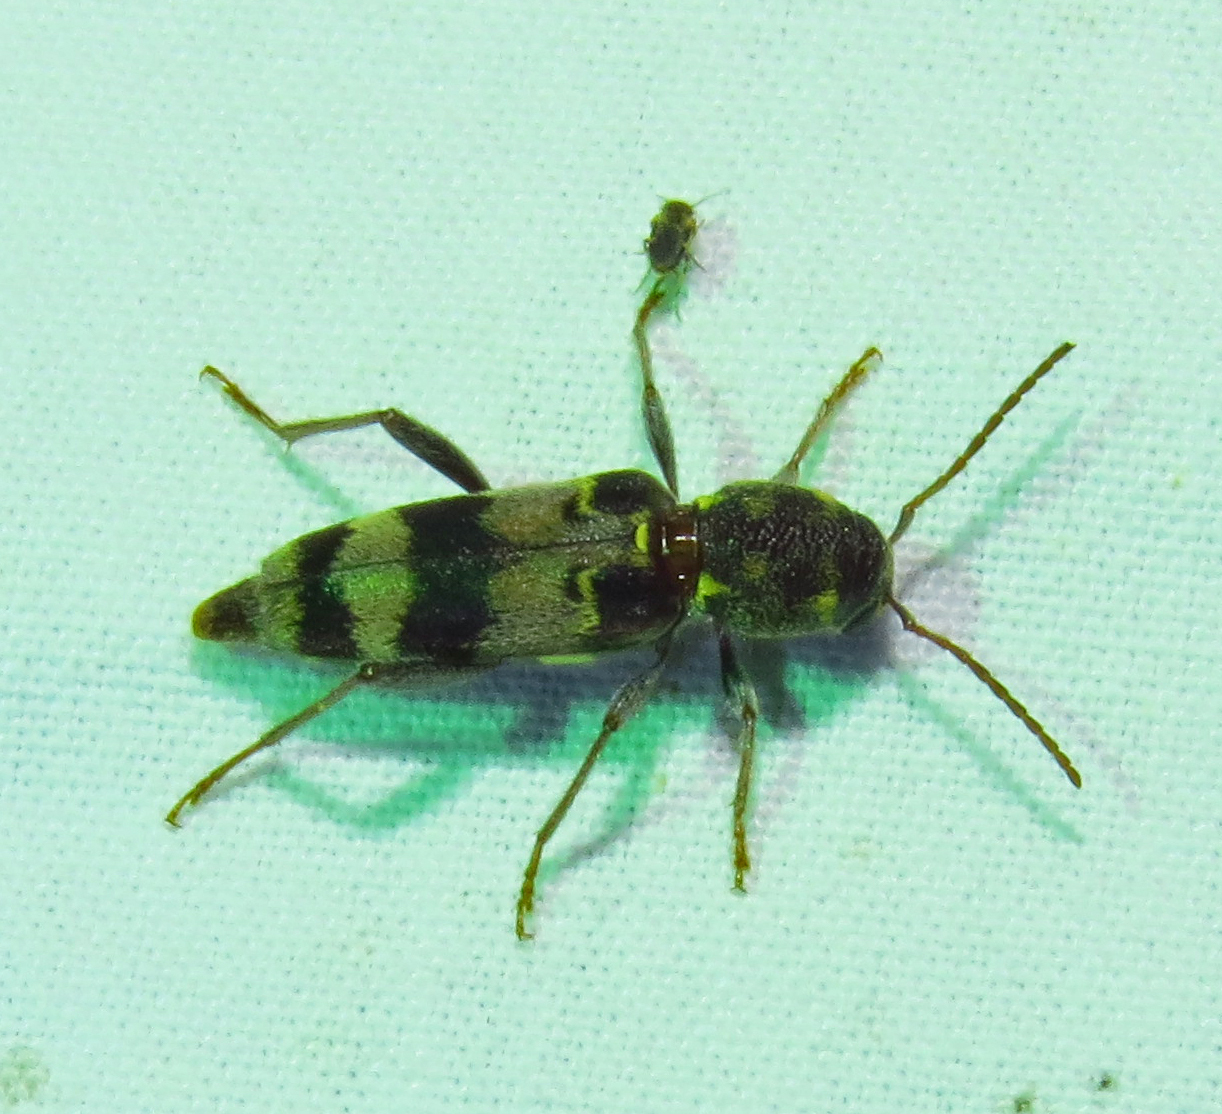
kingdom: Animalia
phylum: Arthropoda
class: Insecta
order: Coleoptera
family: Cerambycidae
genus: Xylotrechus
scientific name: Xylotrechus colonus
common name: Long-horned beetle
